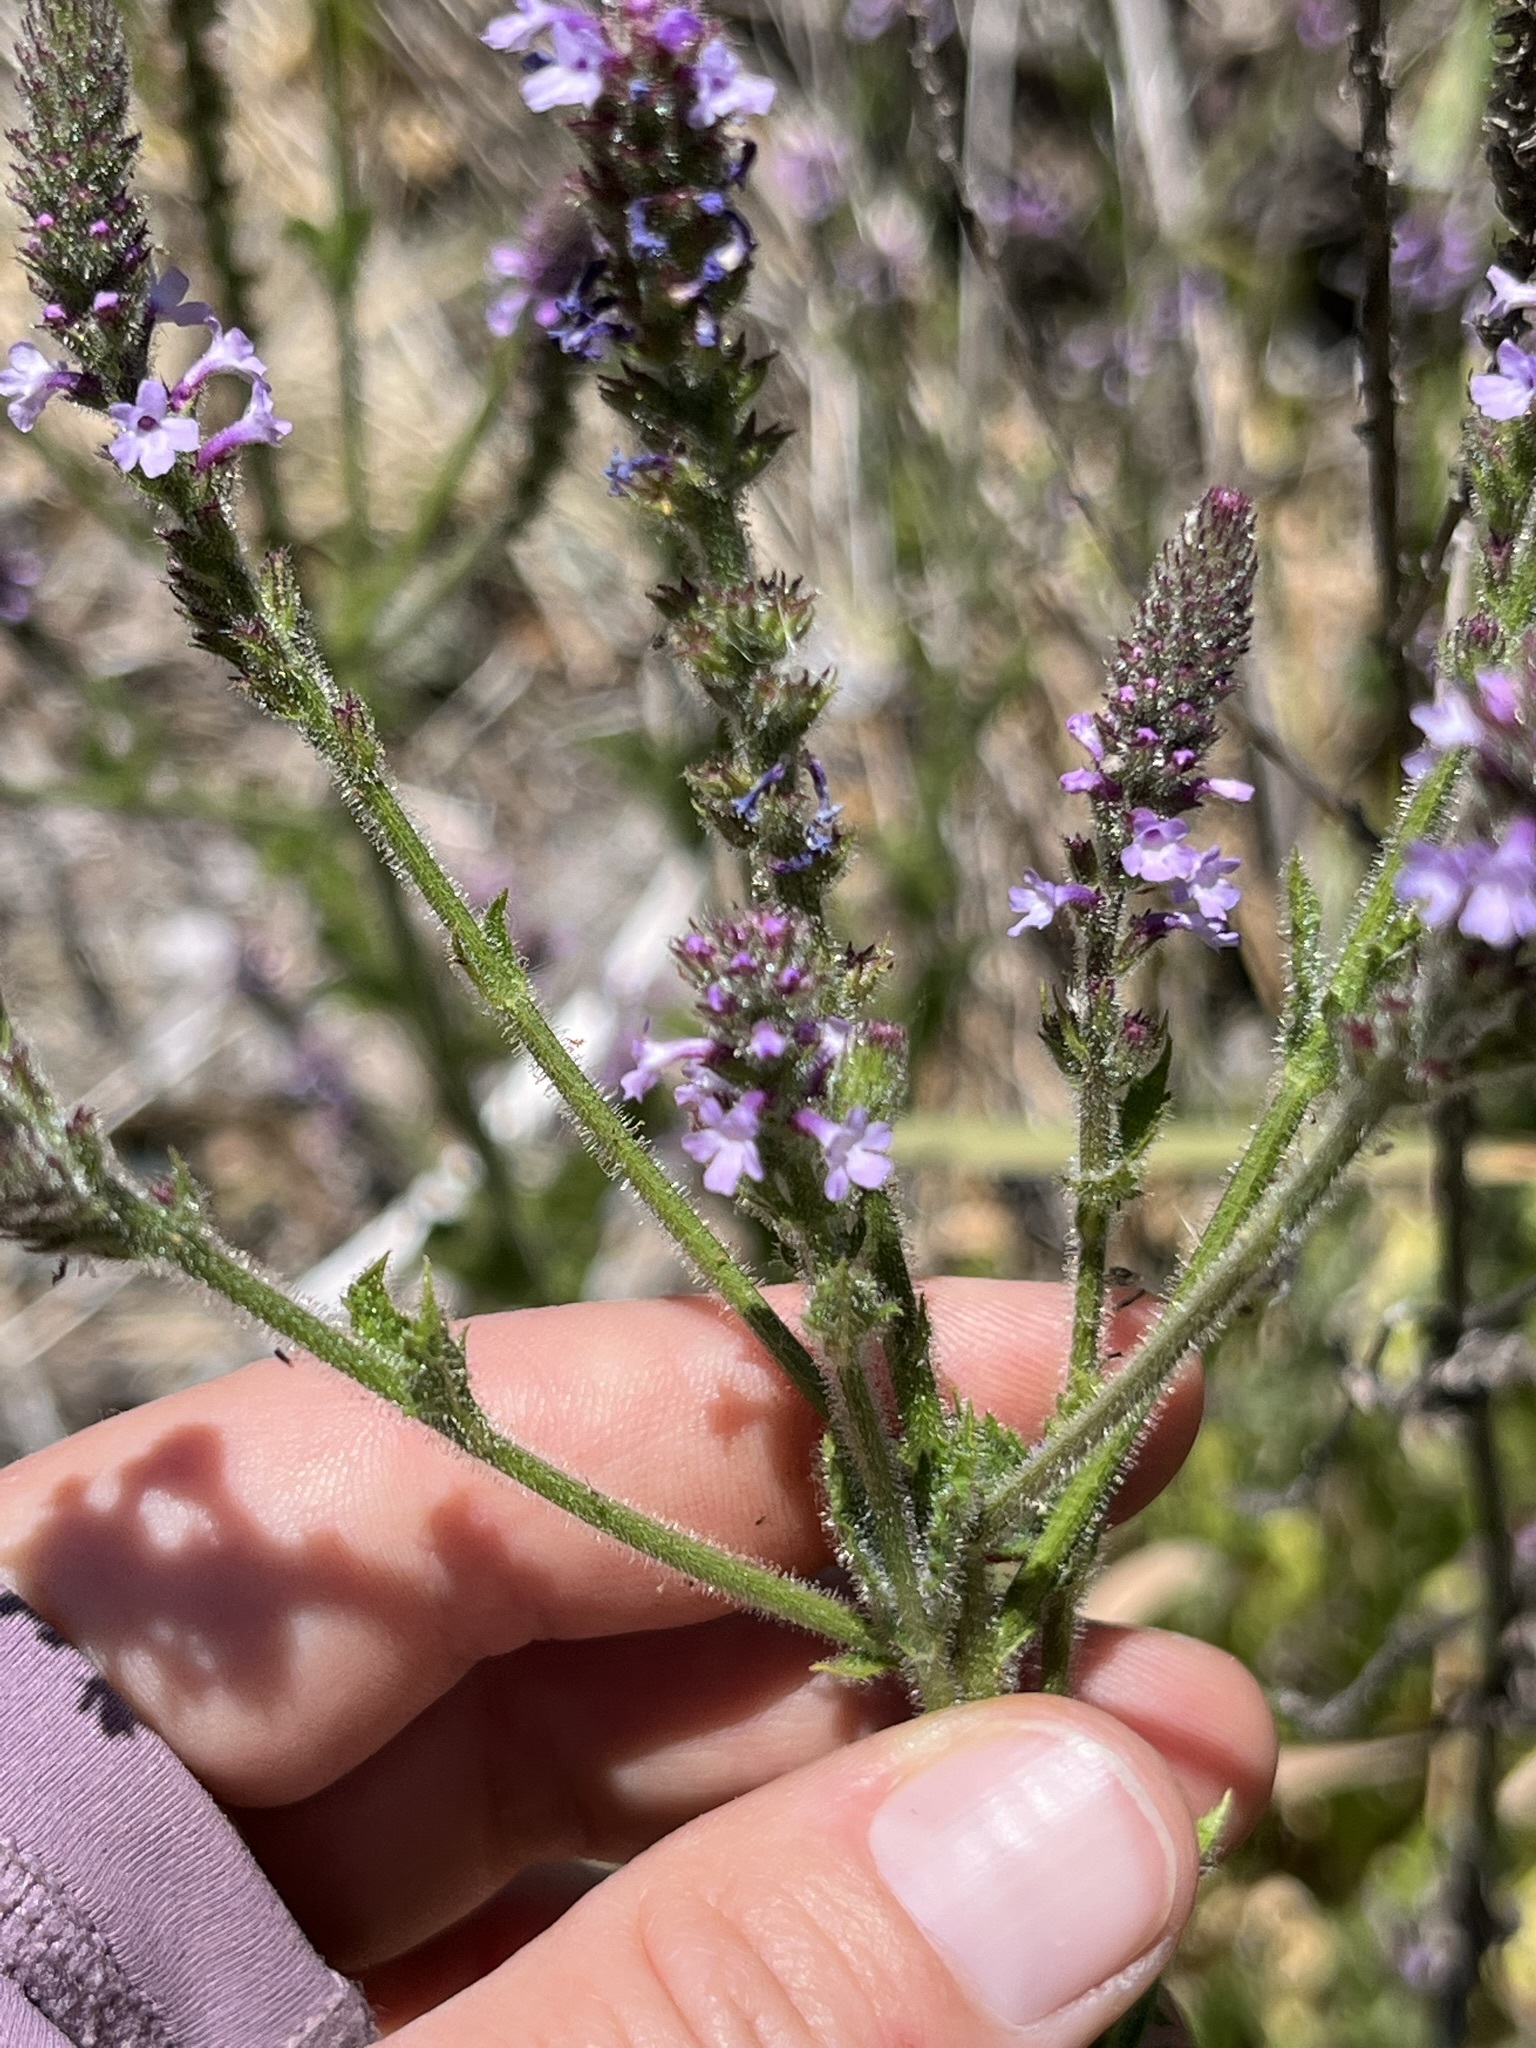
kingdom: Plantae
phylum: Tracheophyta
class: Magnoliopsida
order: Lamiales
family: Verbenaceae
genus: Verbena
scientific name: Verbena lasiostachys
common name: Vervain
